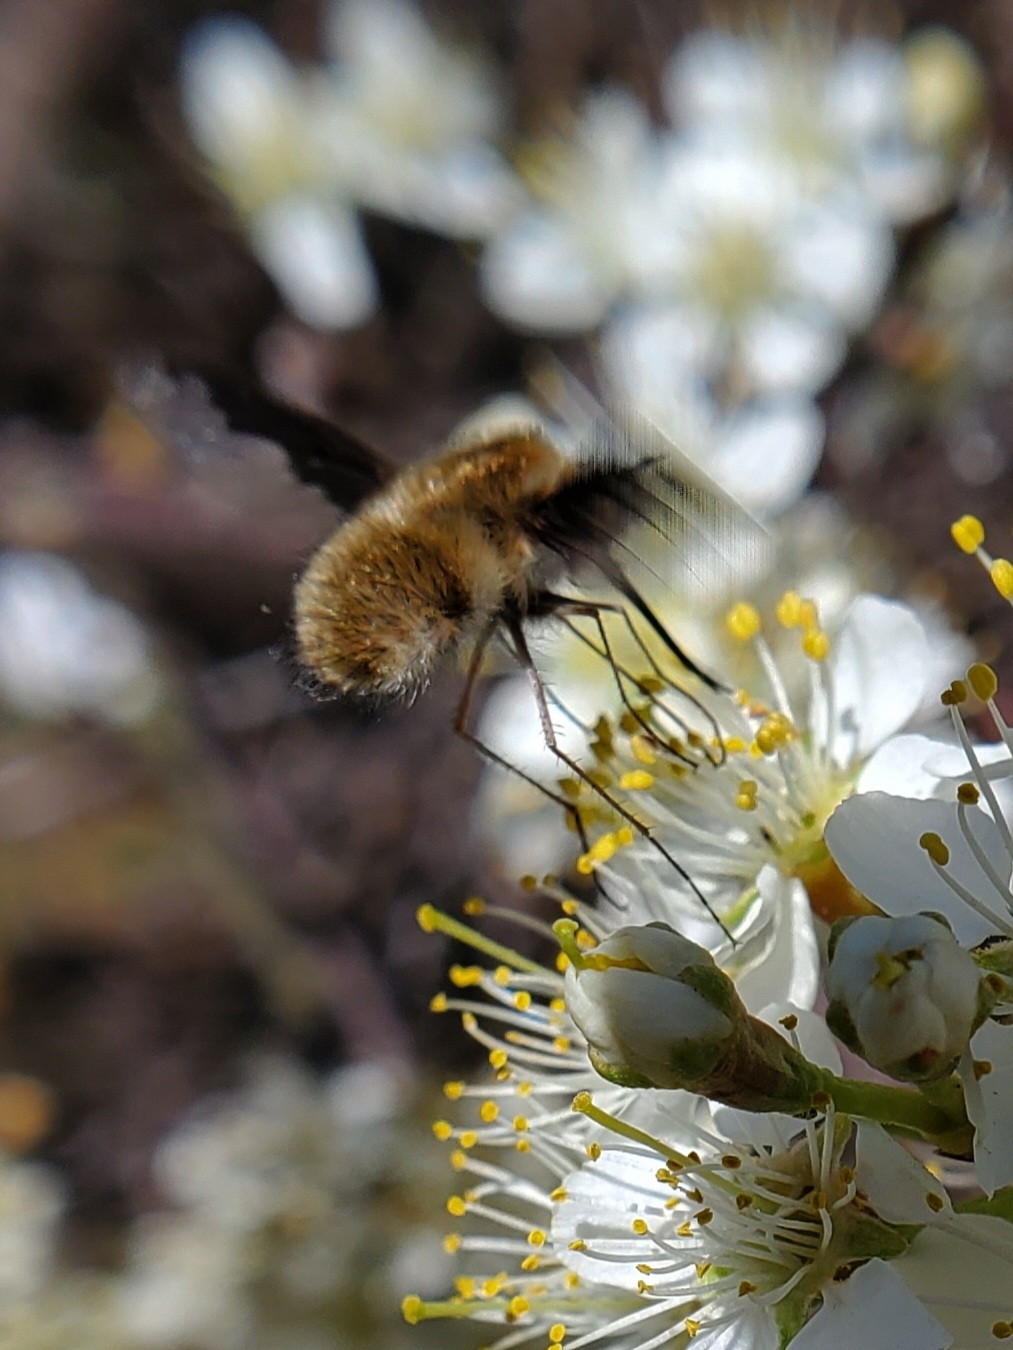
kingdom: Animalia
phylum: Arthropoda
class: Insecta
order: Diptera
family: Bombyliidae
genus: Bombylius
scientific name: Bombylius major
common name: Bee fly
